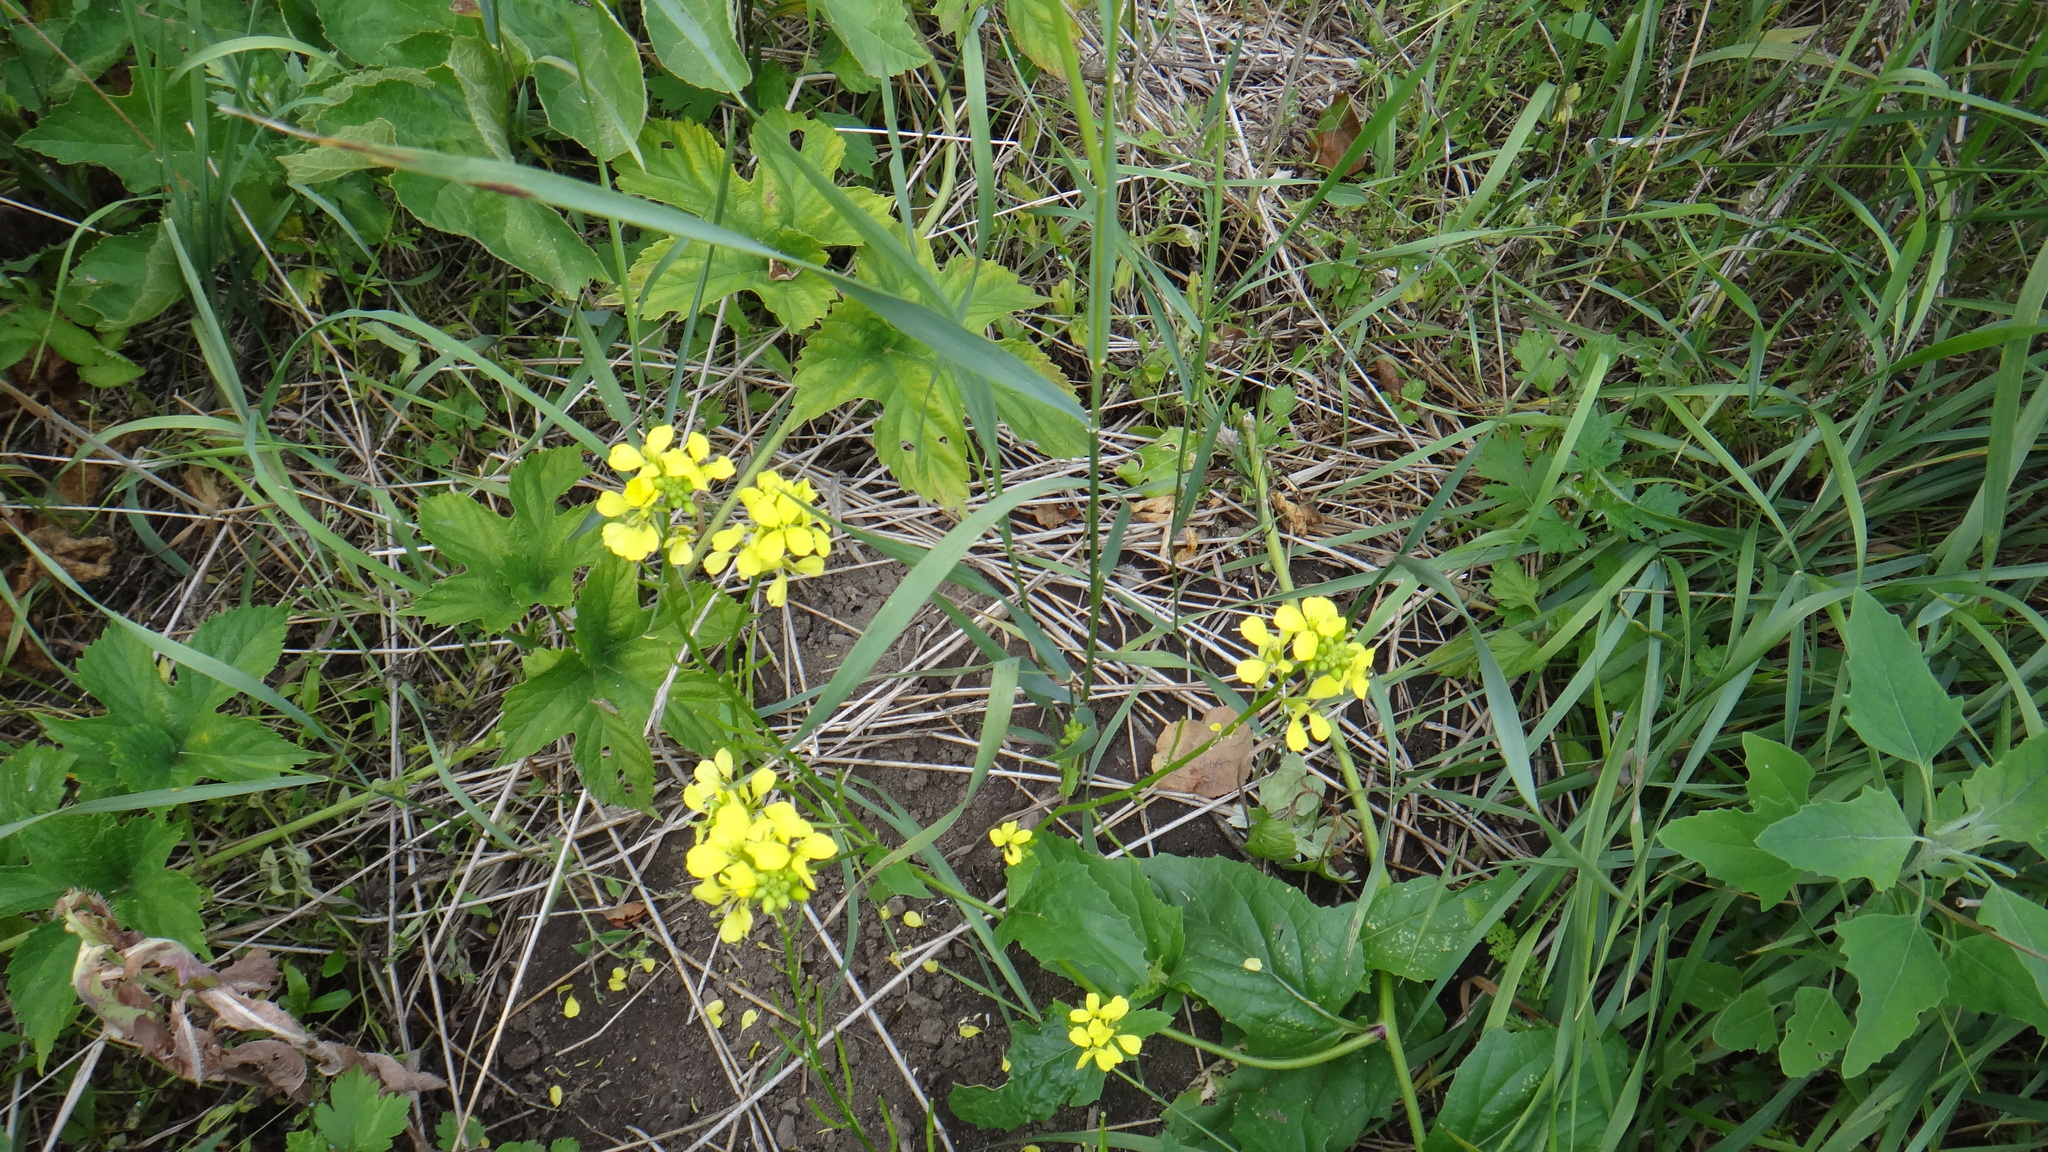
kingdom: Plantae
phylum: Tracheophyta
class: Magnoliopsida
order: Brassicales
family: Brassicaceae
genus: Sinapis
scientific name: Sinapis arvensis
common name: Charlock
